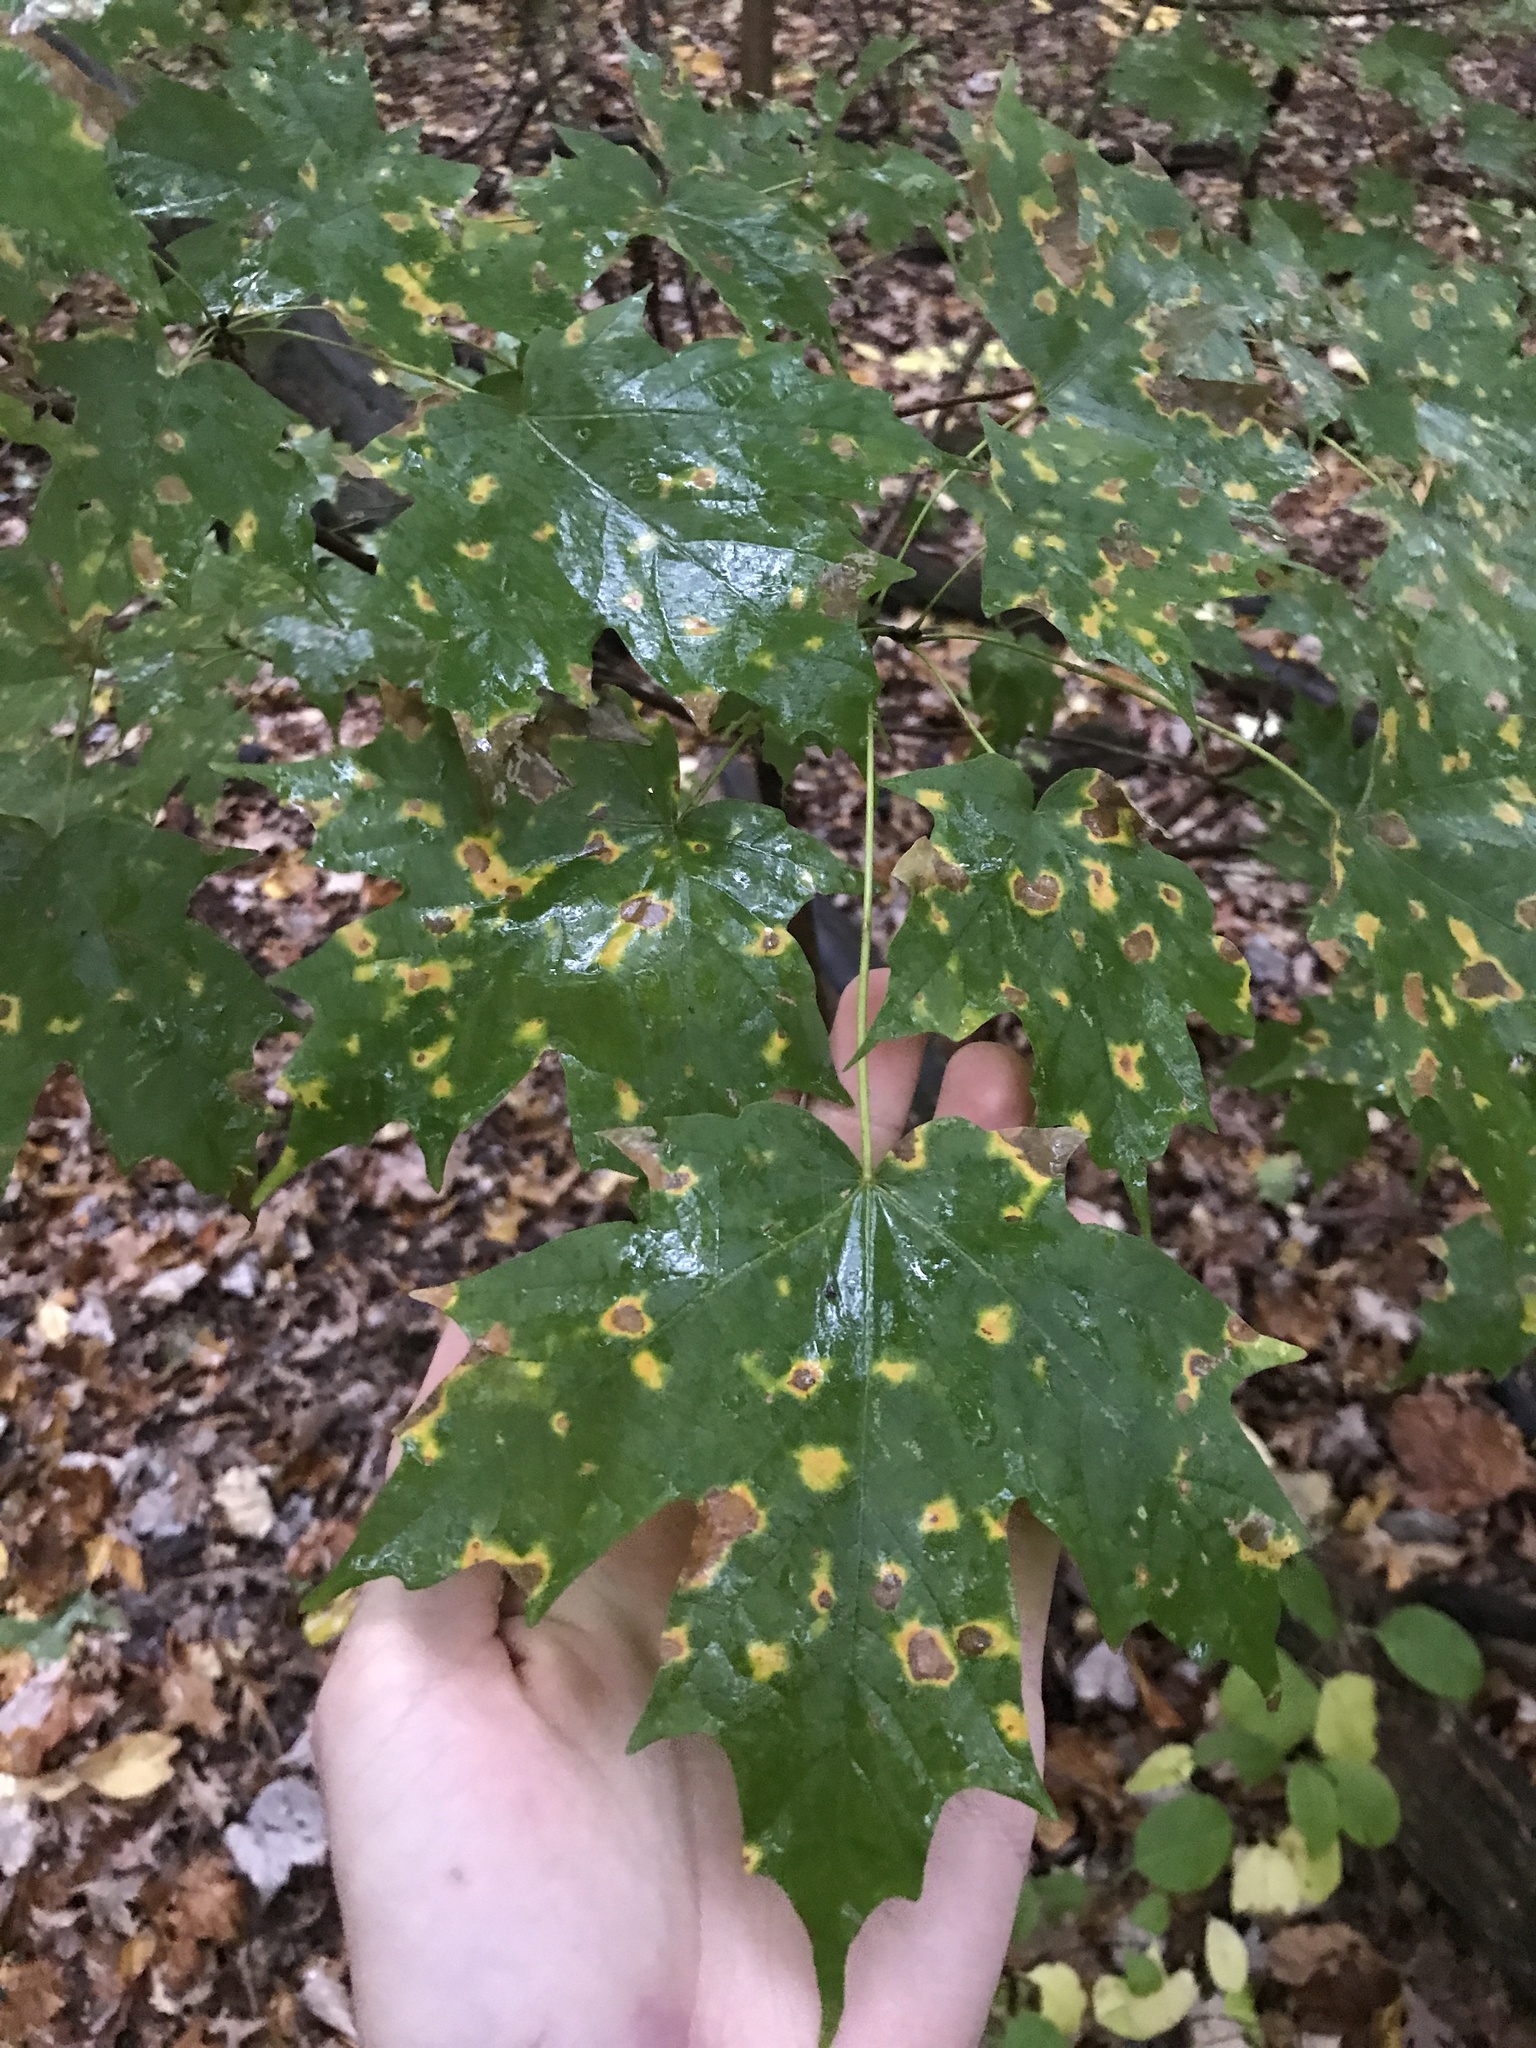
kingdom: Plantae
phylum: Tracheophyta
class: Magnoliopsida
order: Sapindales
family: Sapindaceae
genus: Acer
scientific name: Acer saccharum
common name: Sugar maple
